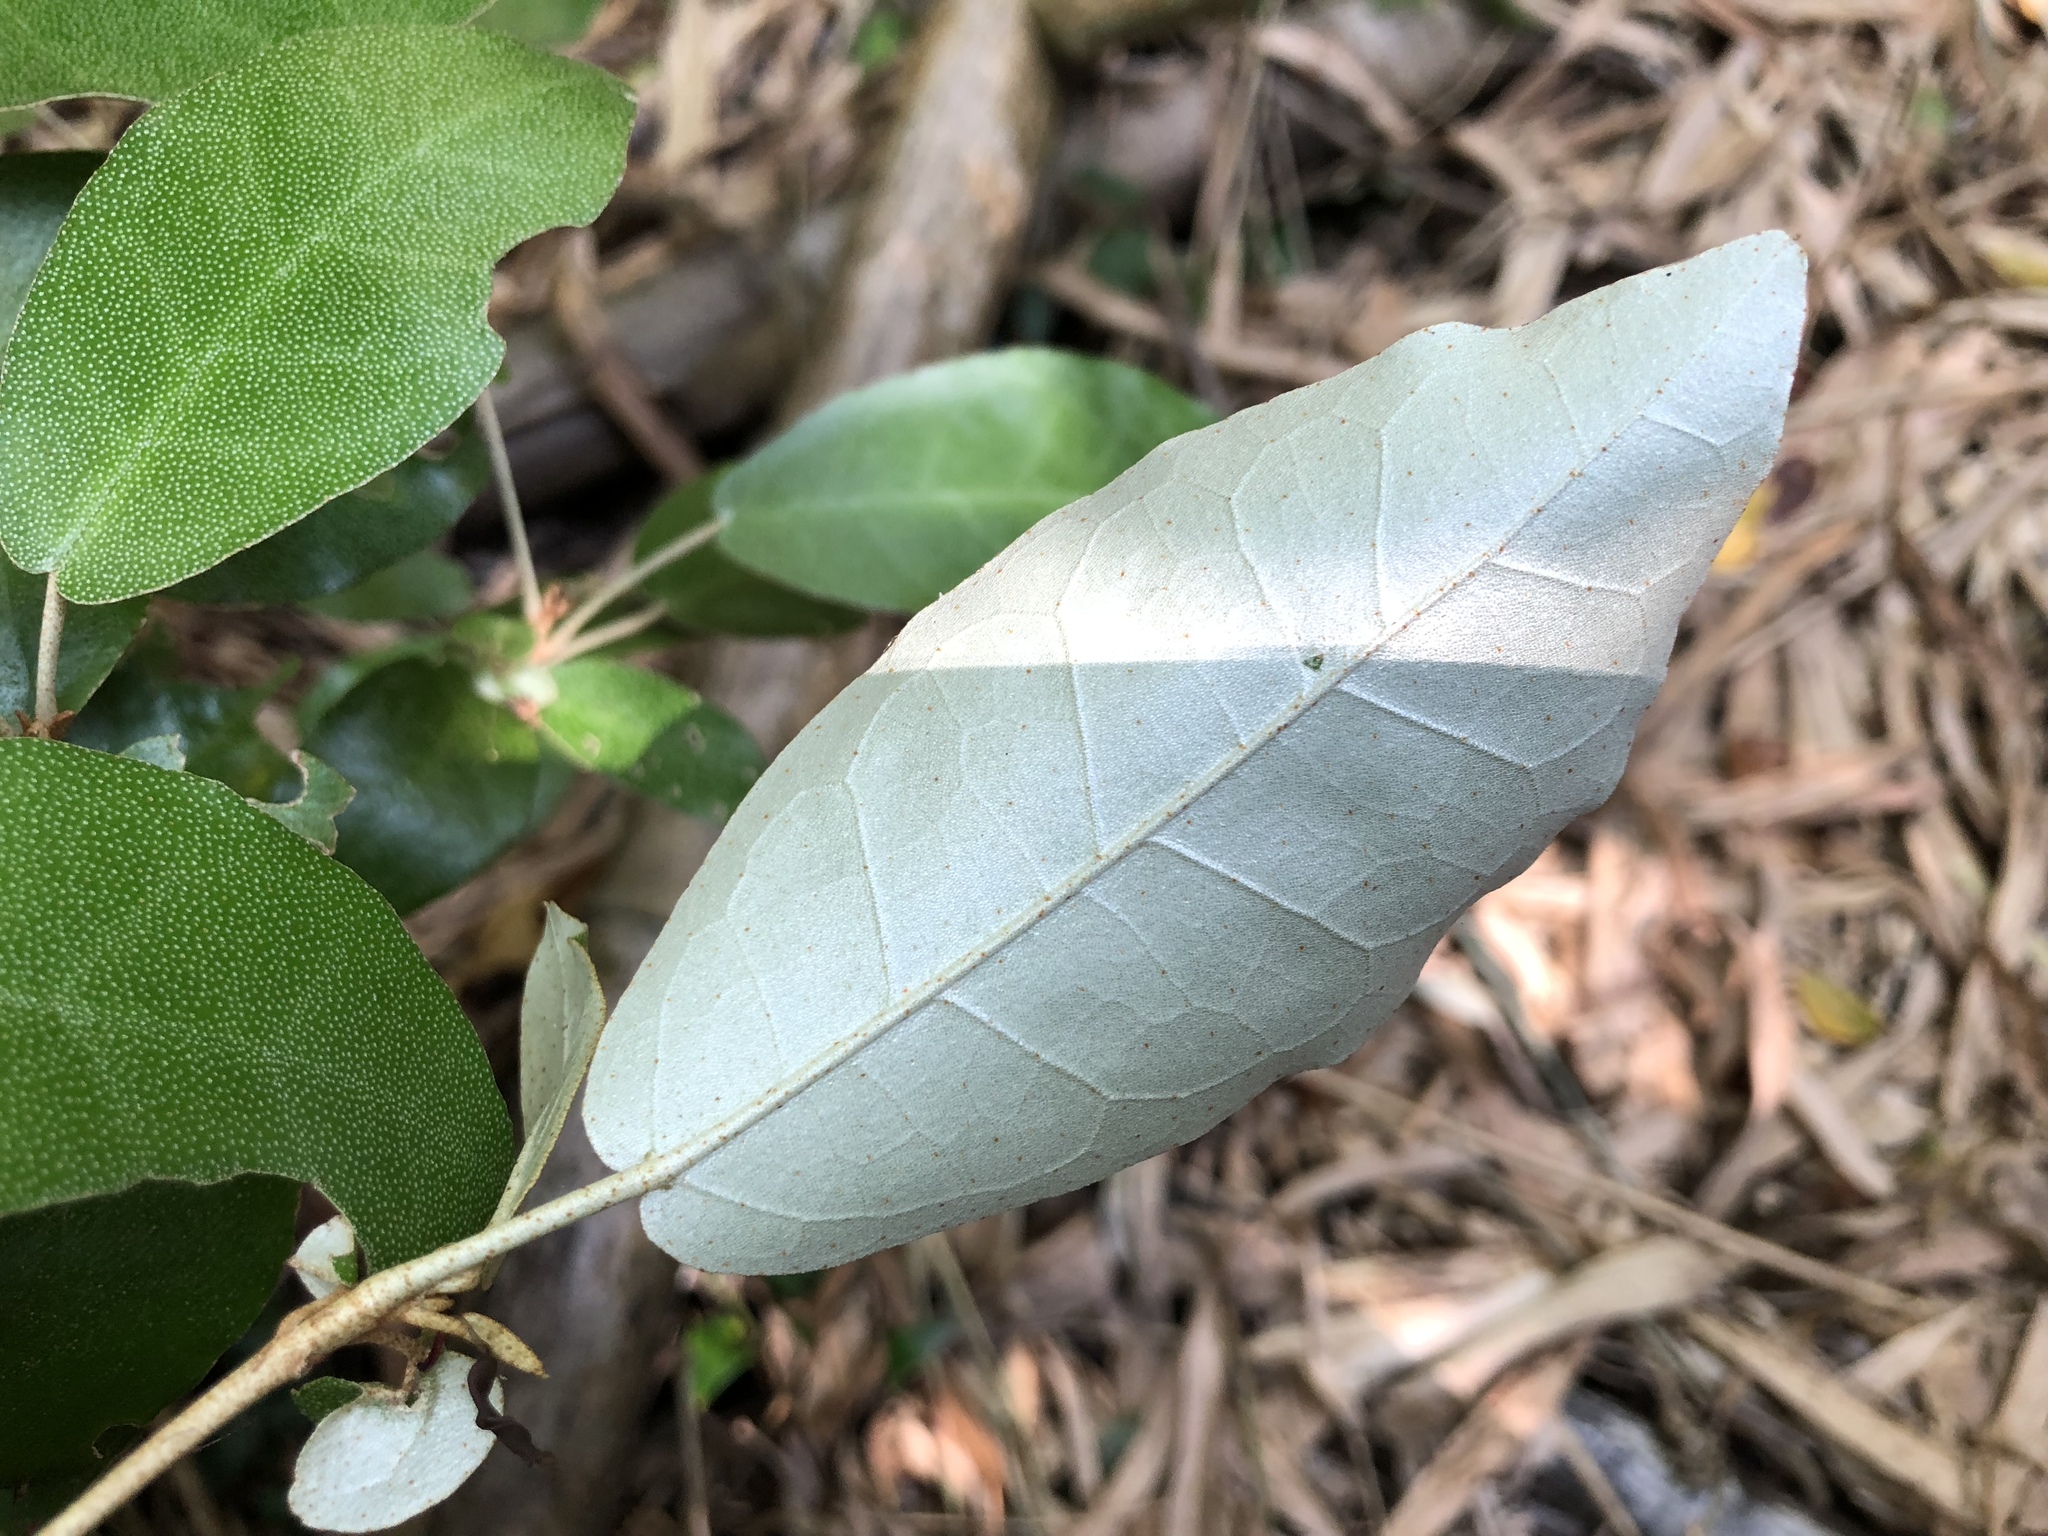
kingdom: Plantae
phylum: Tracheophyta
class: Magnoliopsida
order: Malpighiales
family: Euphorbiaceae
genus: Croton
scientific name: Croton cascarilloides
